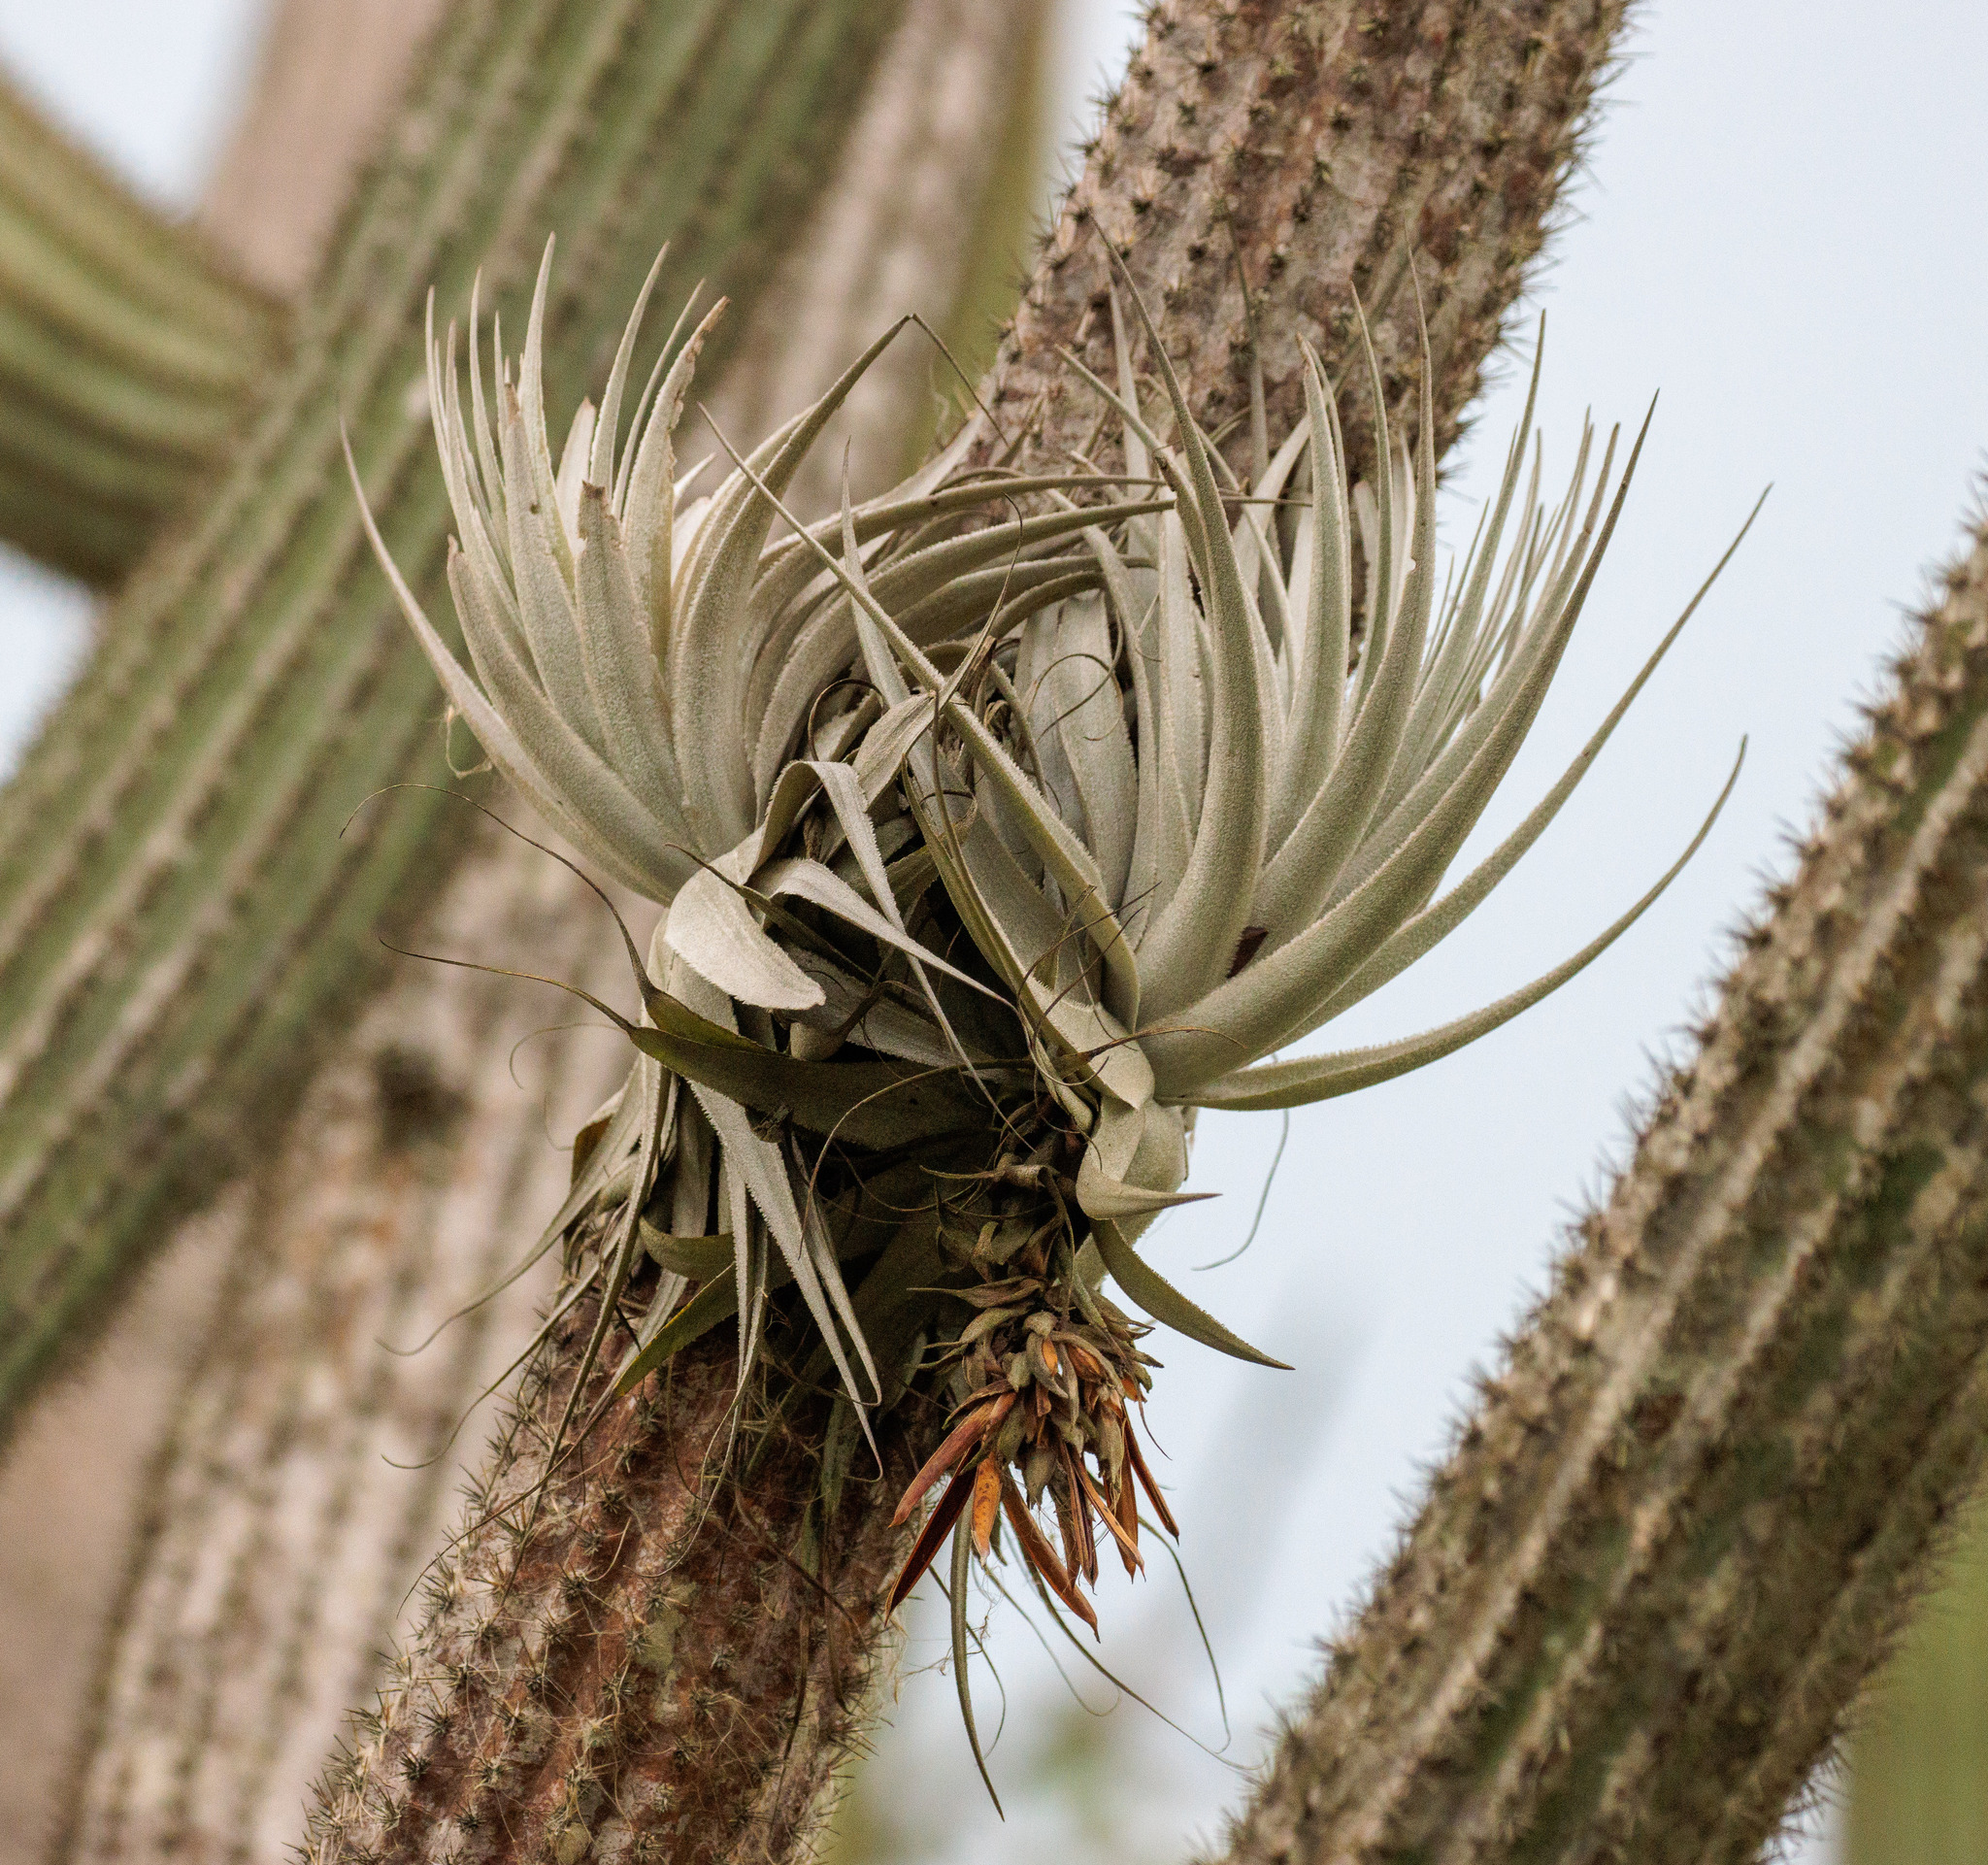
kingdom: Plantae
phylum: Tracheophyta
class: Liliopsida
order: Poales
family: Bromeliaceae
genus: Tillandsia
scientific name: Tillandsia gardneri
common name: Airplant
